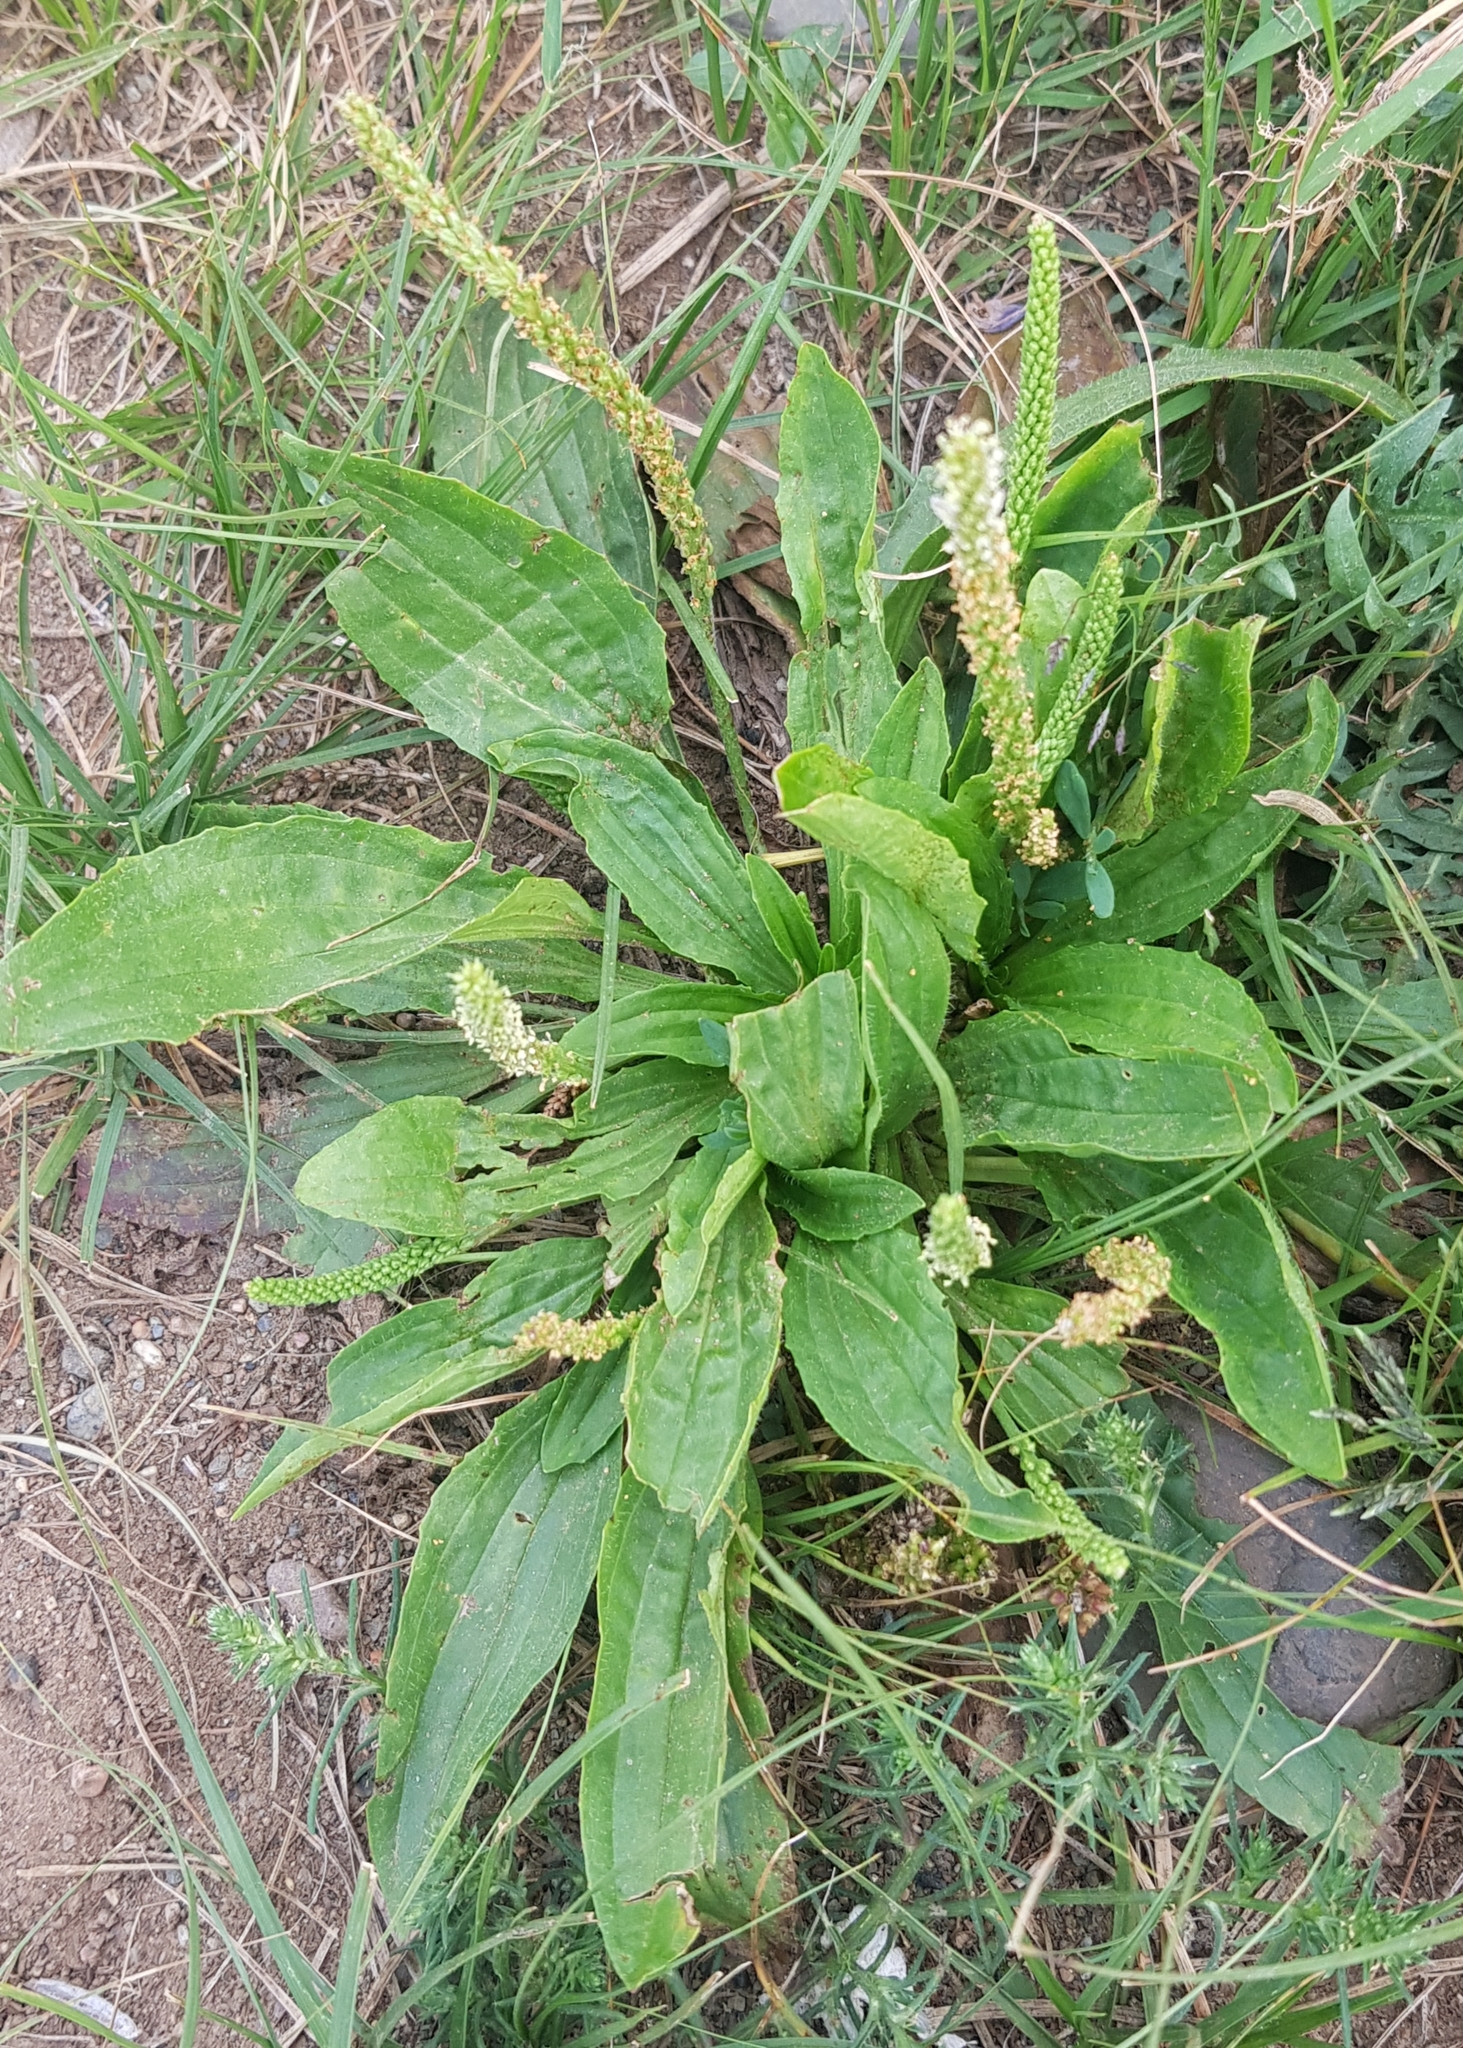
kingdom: Plantae
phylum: Tracheophyta
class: Magnoliopsida
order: Lamiales
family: Plantaginaceae
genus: Plantago
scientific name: Plantago depressa
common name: Depressed plantain
